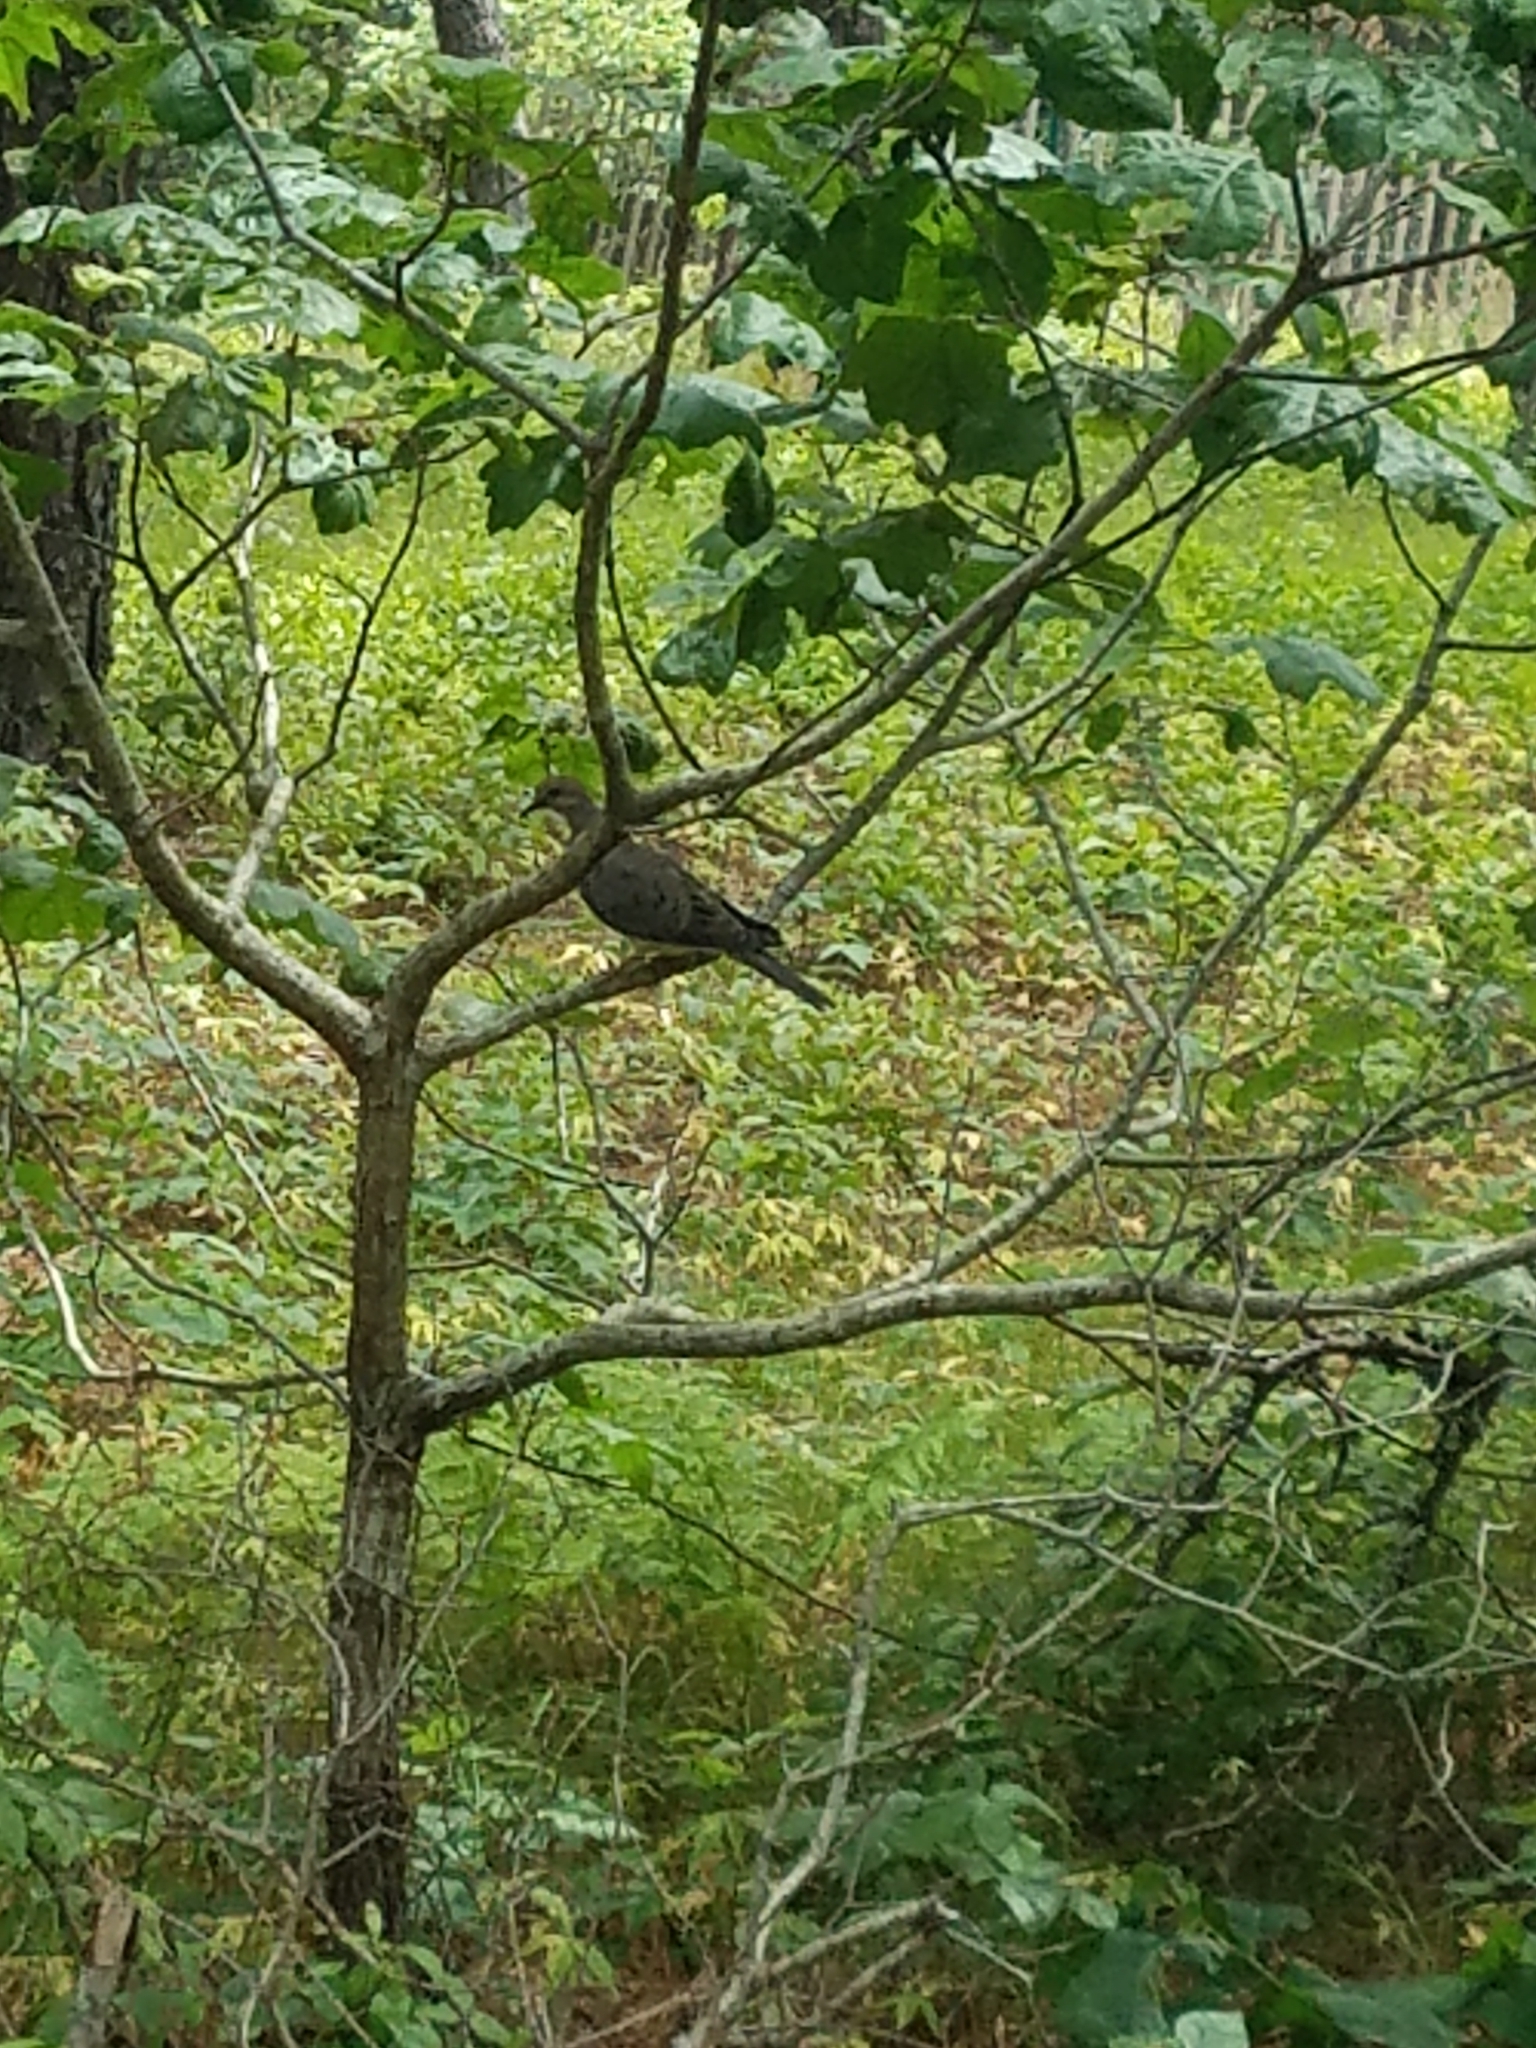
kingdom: Animalia
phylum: Chordata
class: Aves
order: Columbiformes
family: Columbidae
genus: Zenaida
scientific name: Zenaida macroura
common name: Mourning dove
